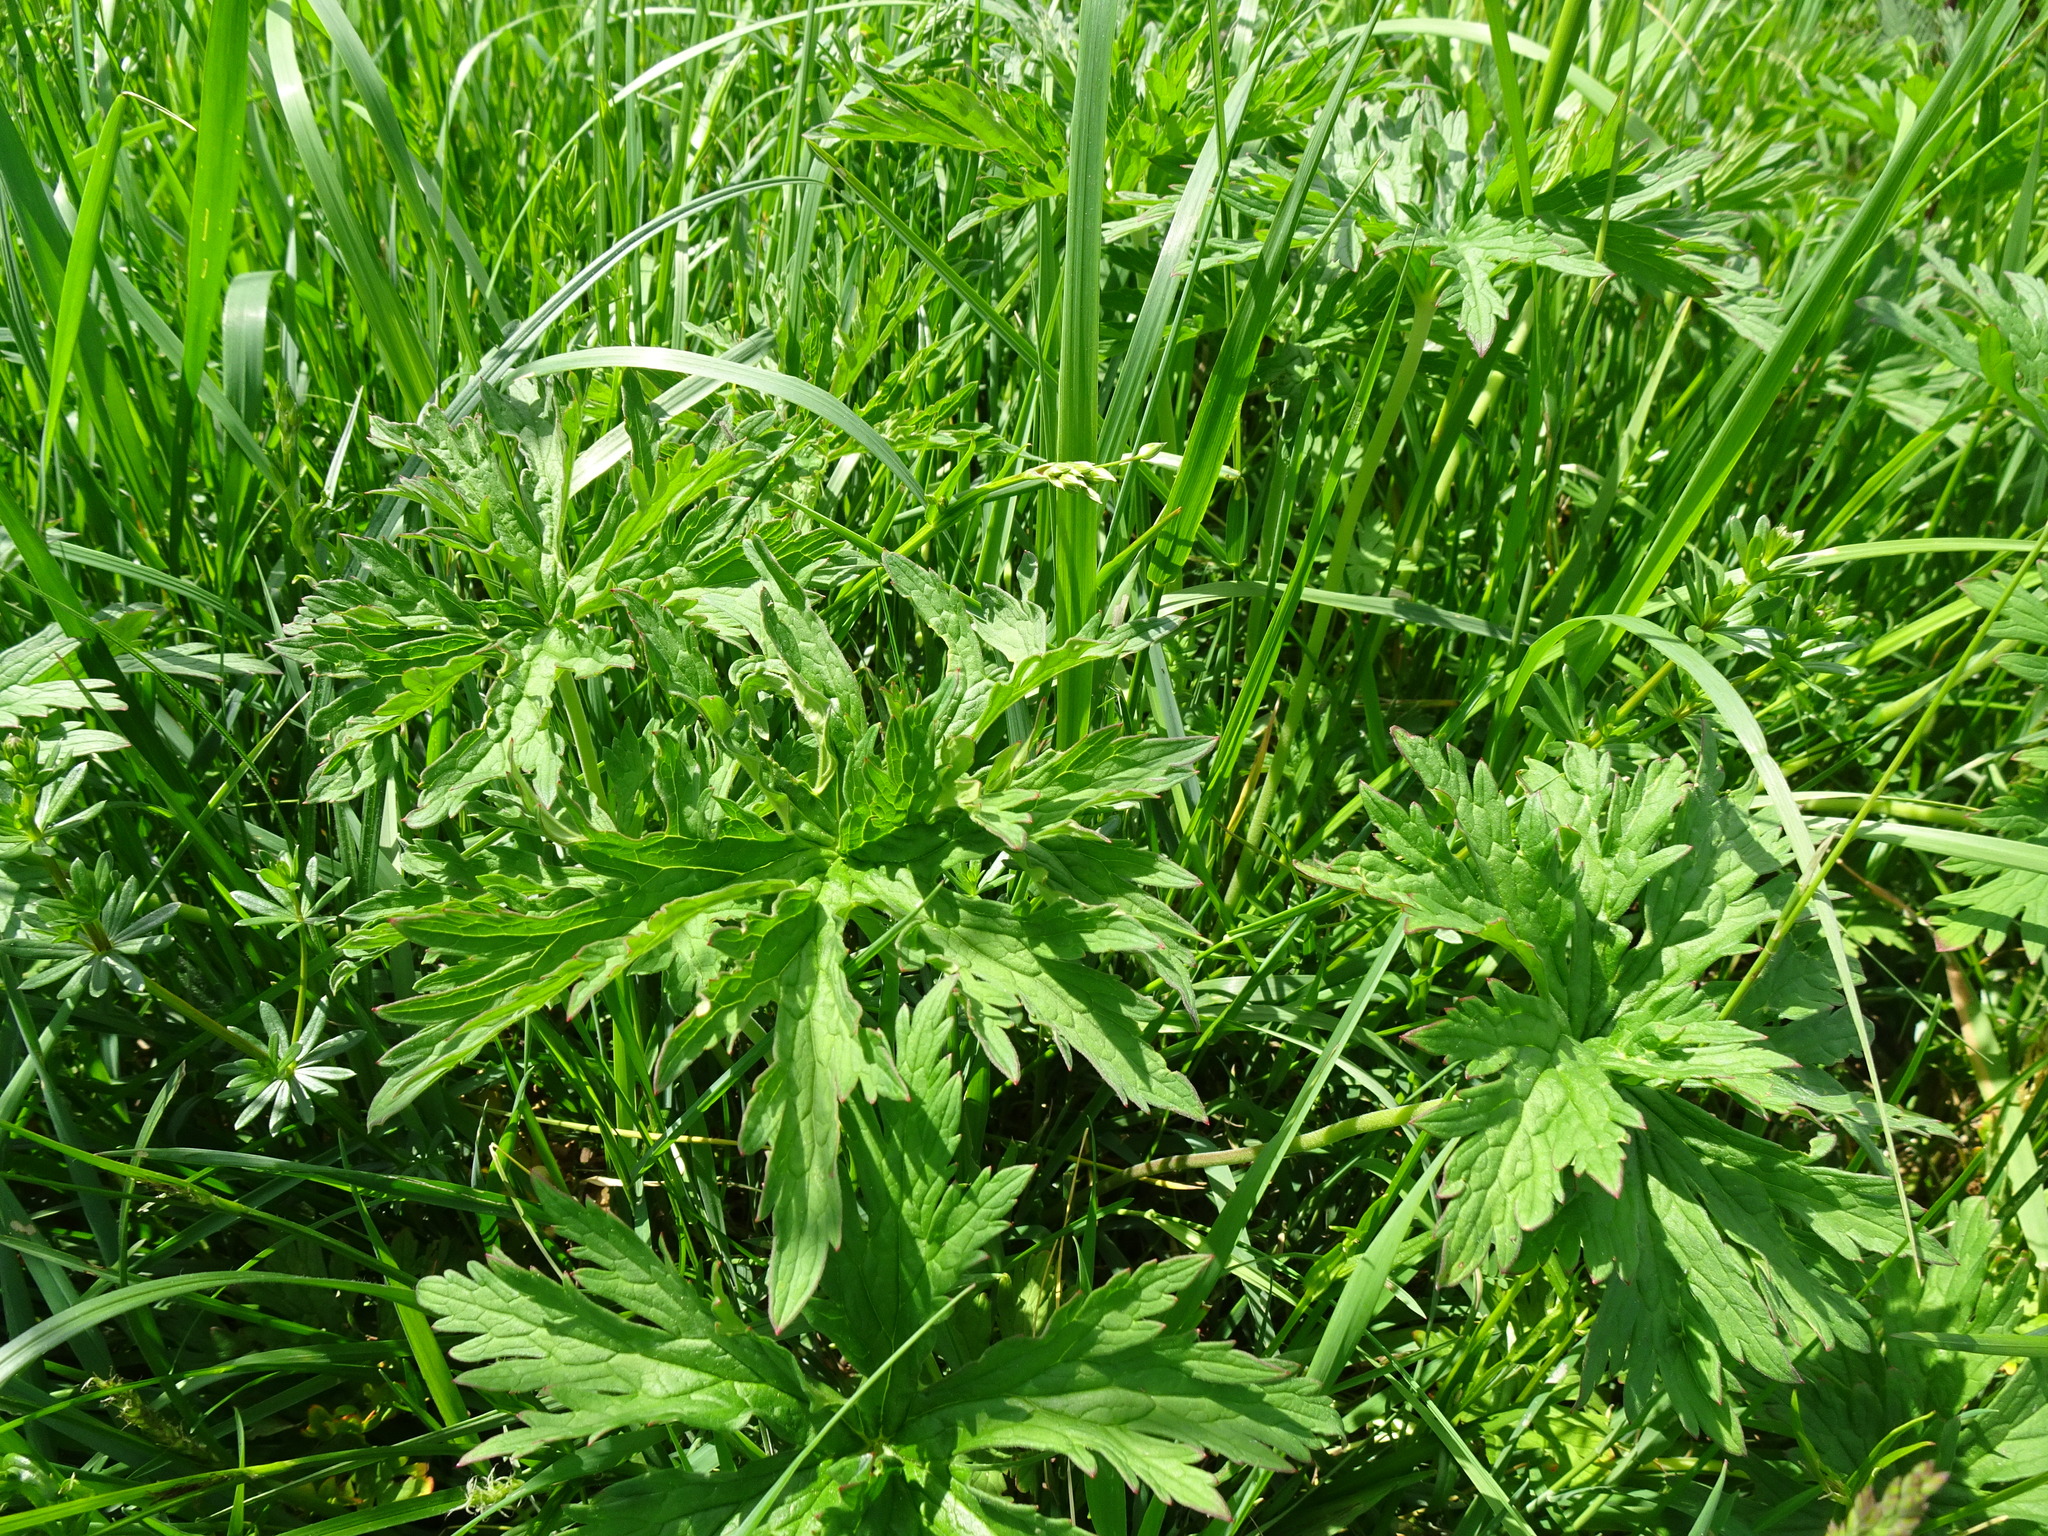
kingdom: Plantae
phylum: Tracheophyta
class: Magnoliopsida
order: Geraniales
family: Geraniaceae
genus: Geranium
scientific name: Geranium pratense
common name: Meadow crane's-bill
